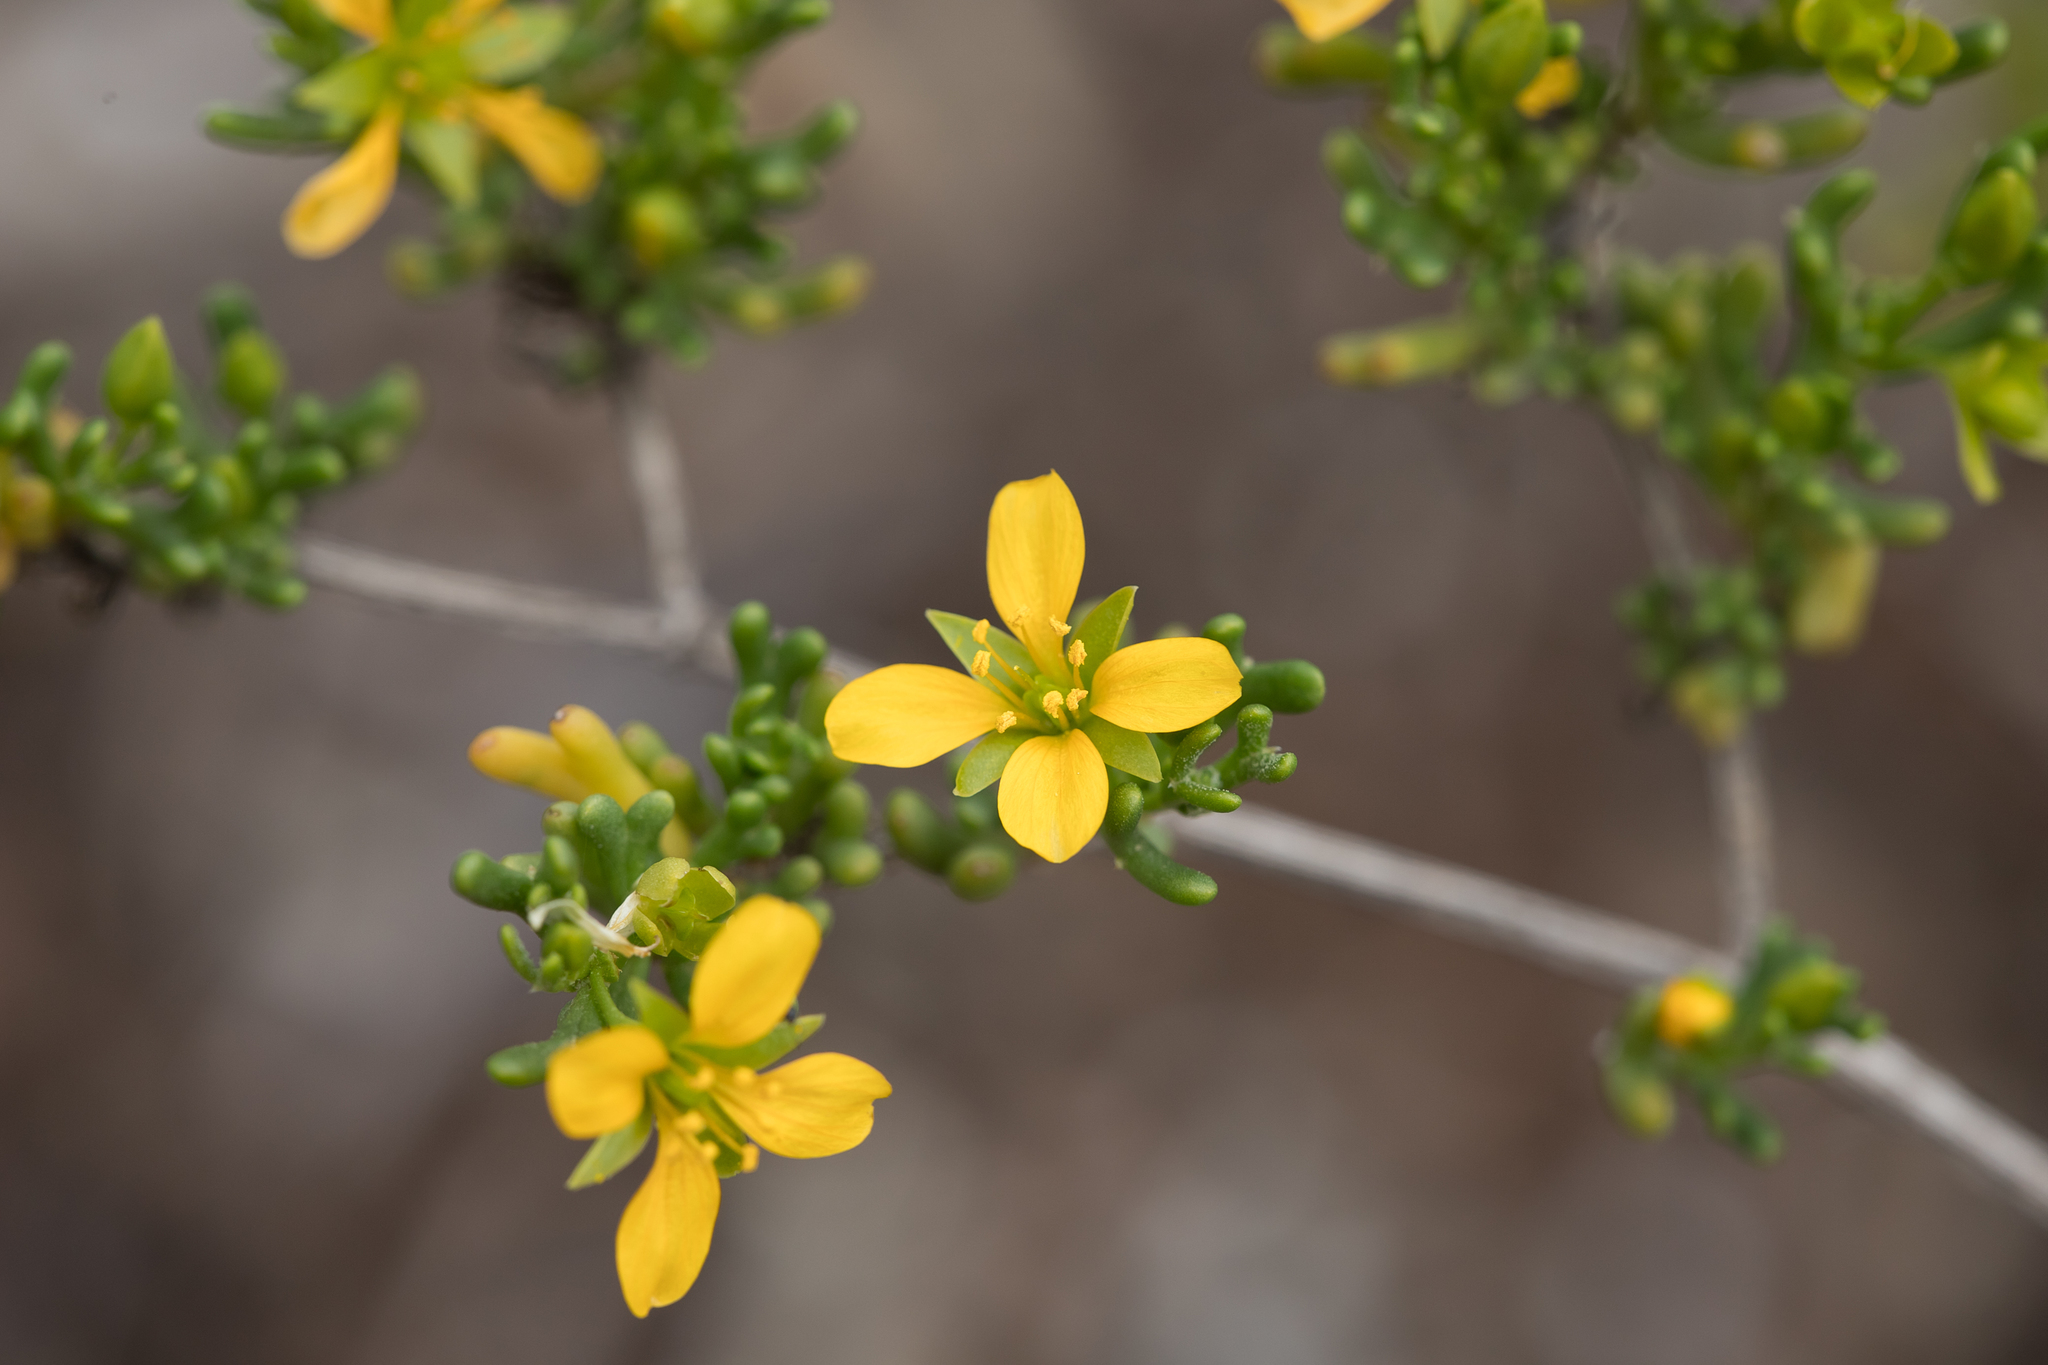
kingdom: Plantae
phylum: Tracheophyta
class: Magnoliopsida
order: Zygophyllales
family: Zygophyllaceae
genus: Roepera
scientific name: Roepera aurantiaca
